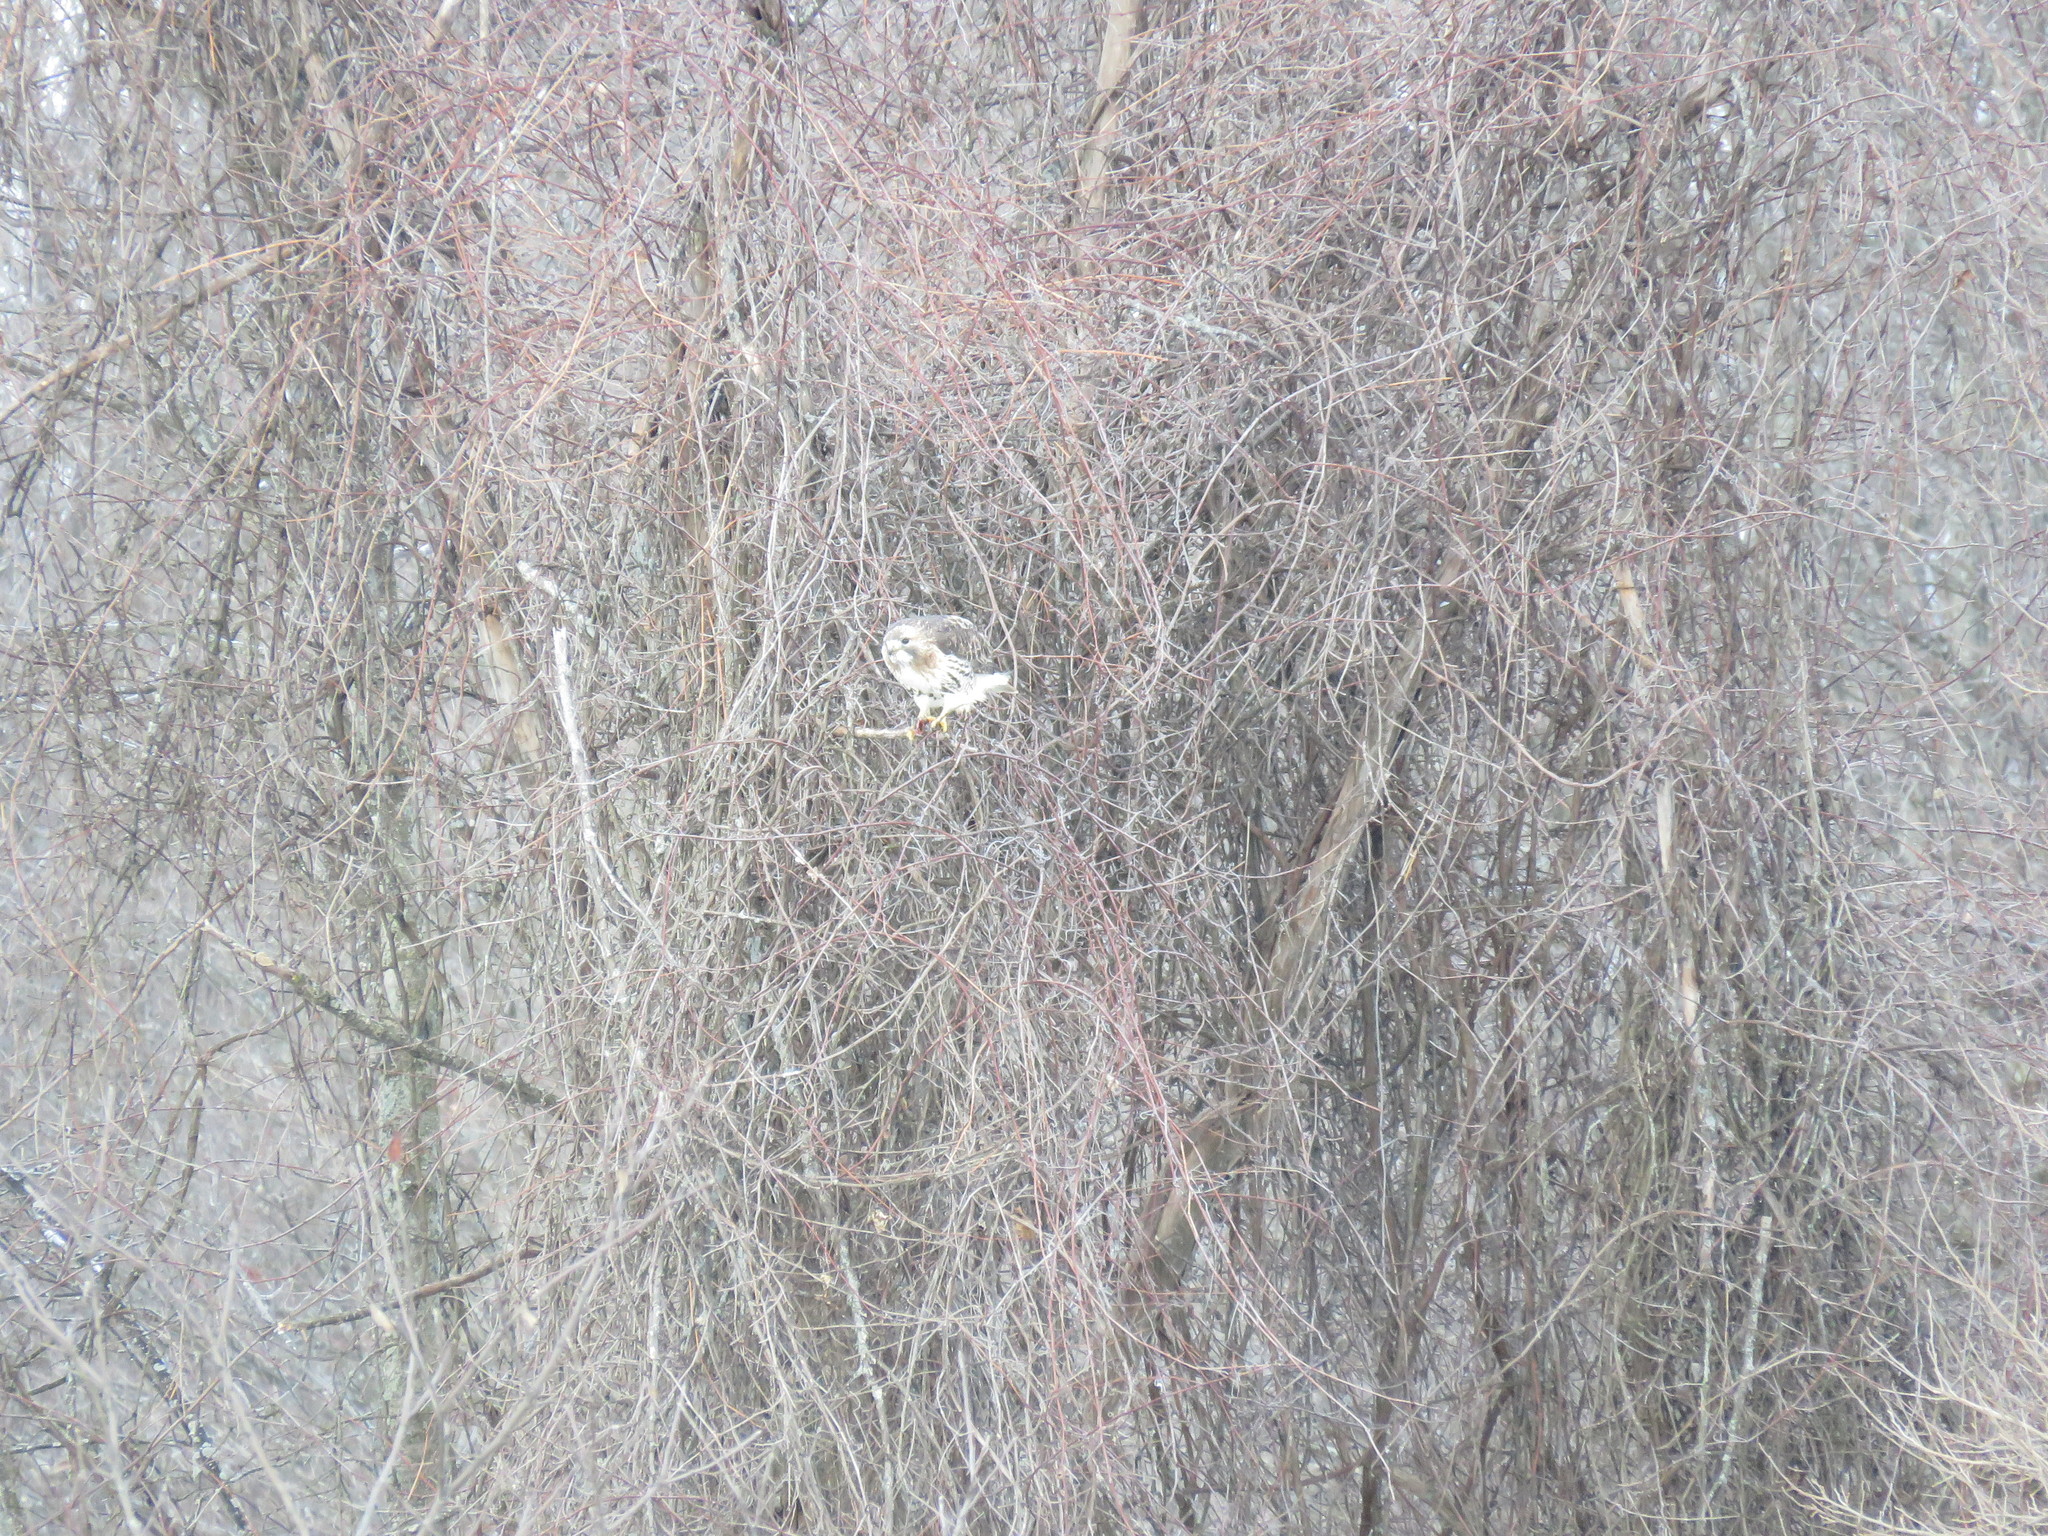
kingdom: Animalia
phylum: Chordata
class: Aves
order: Accipitriformes
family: Accipitridae
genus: Buteo
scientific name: Buteo jamaicensis
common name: Red-tailed hawk
